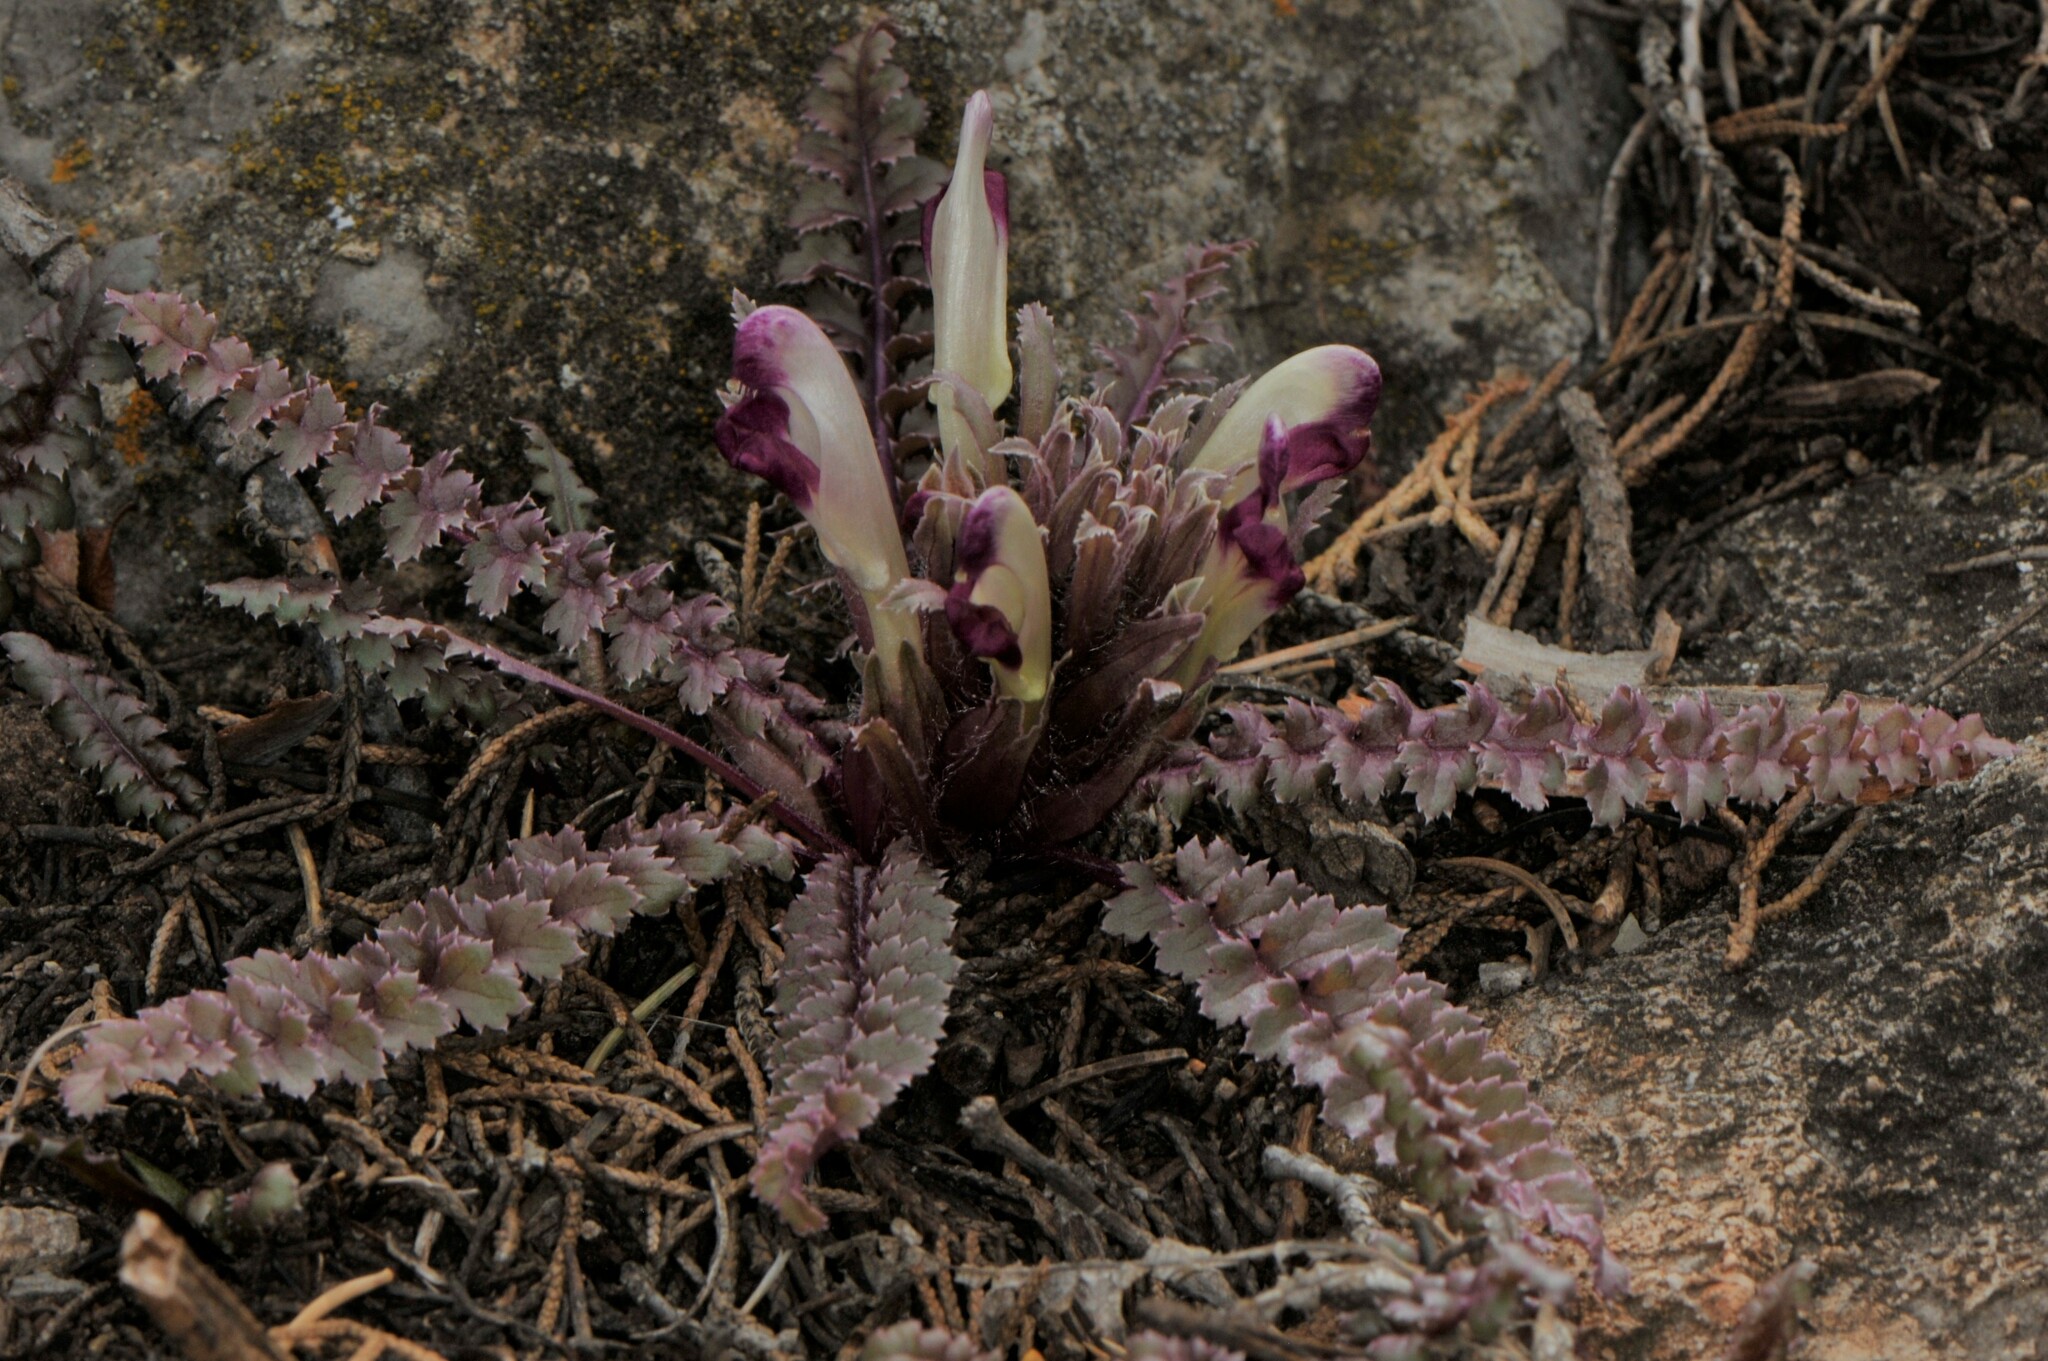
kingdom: Plantae
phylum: Tracheophyta
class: Magnoliopsida
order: Lamiales
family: Orobanchaceae
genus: Pedicularis
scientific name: Pedicularis centranthera
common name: Dwarf lousewort
